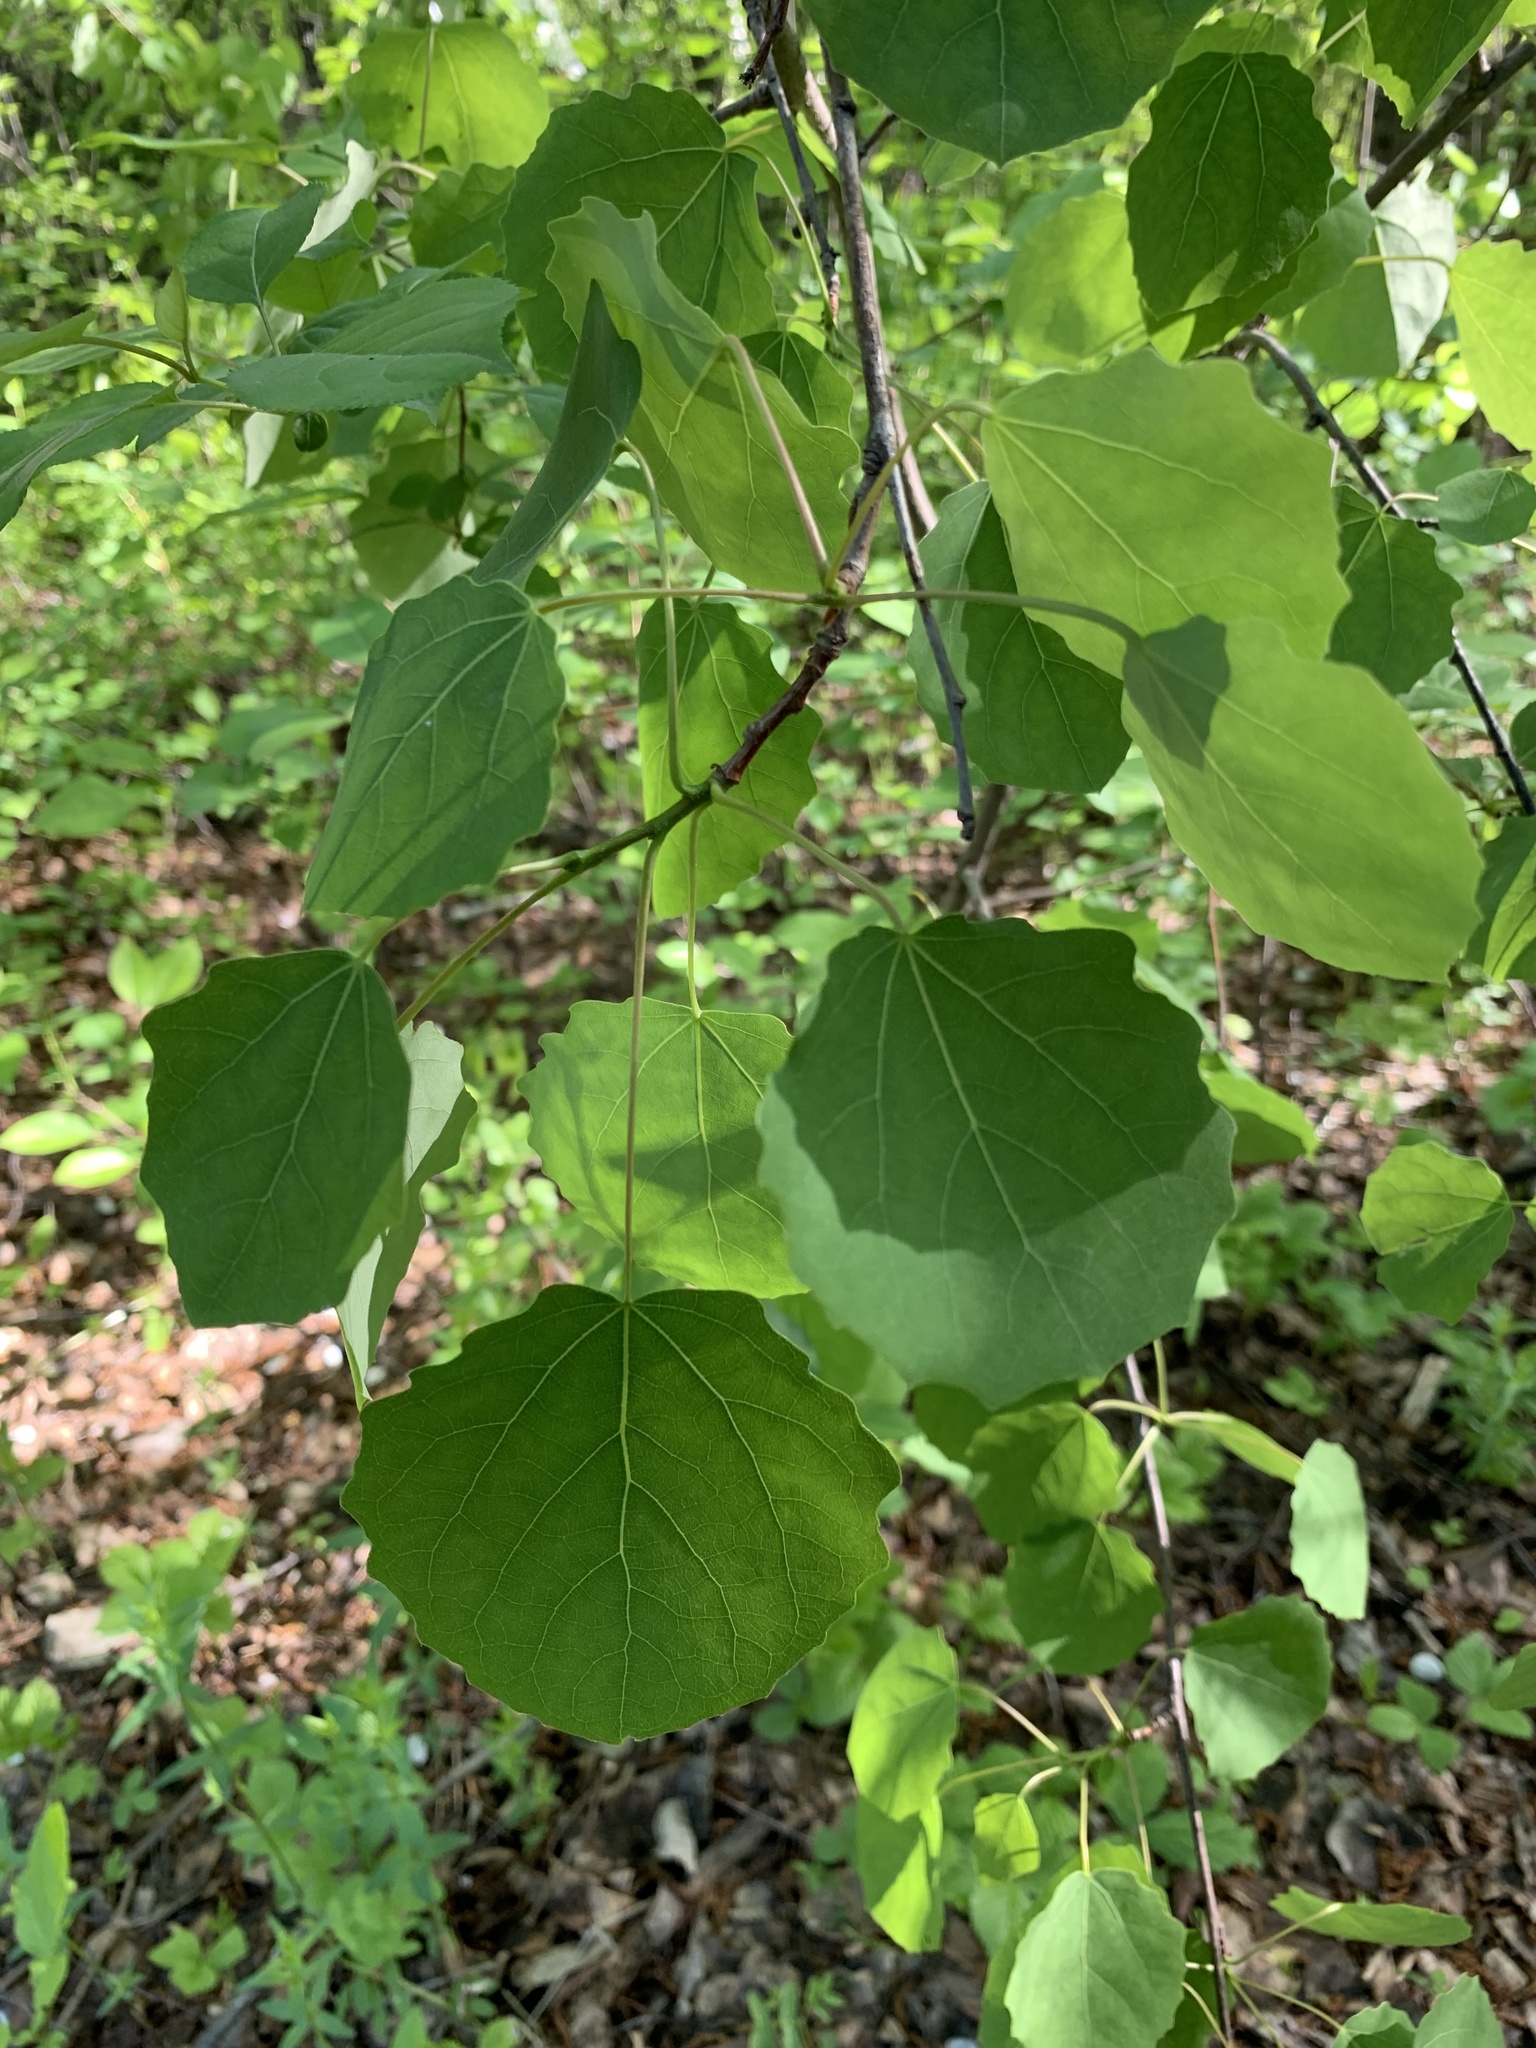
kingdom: Plantae
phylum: Tracheophyta
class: Magnoliopsida
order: Malpighiales
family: Salicaceae
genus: Populus
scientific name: Populus tremula
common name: European aspen
